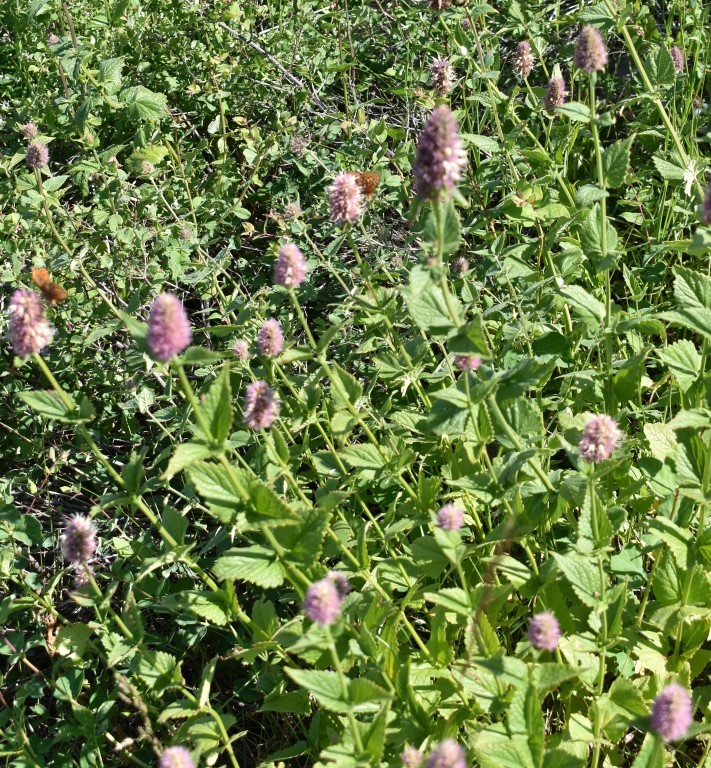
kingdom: Plantae
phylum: Tracheophyta
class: Magnoliopsida
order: Lamiales
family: Lamiaceae
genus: Agastache
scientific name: Agastache urticifolia
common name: Horsemint giant hyssop
